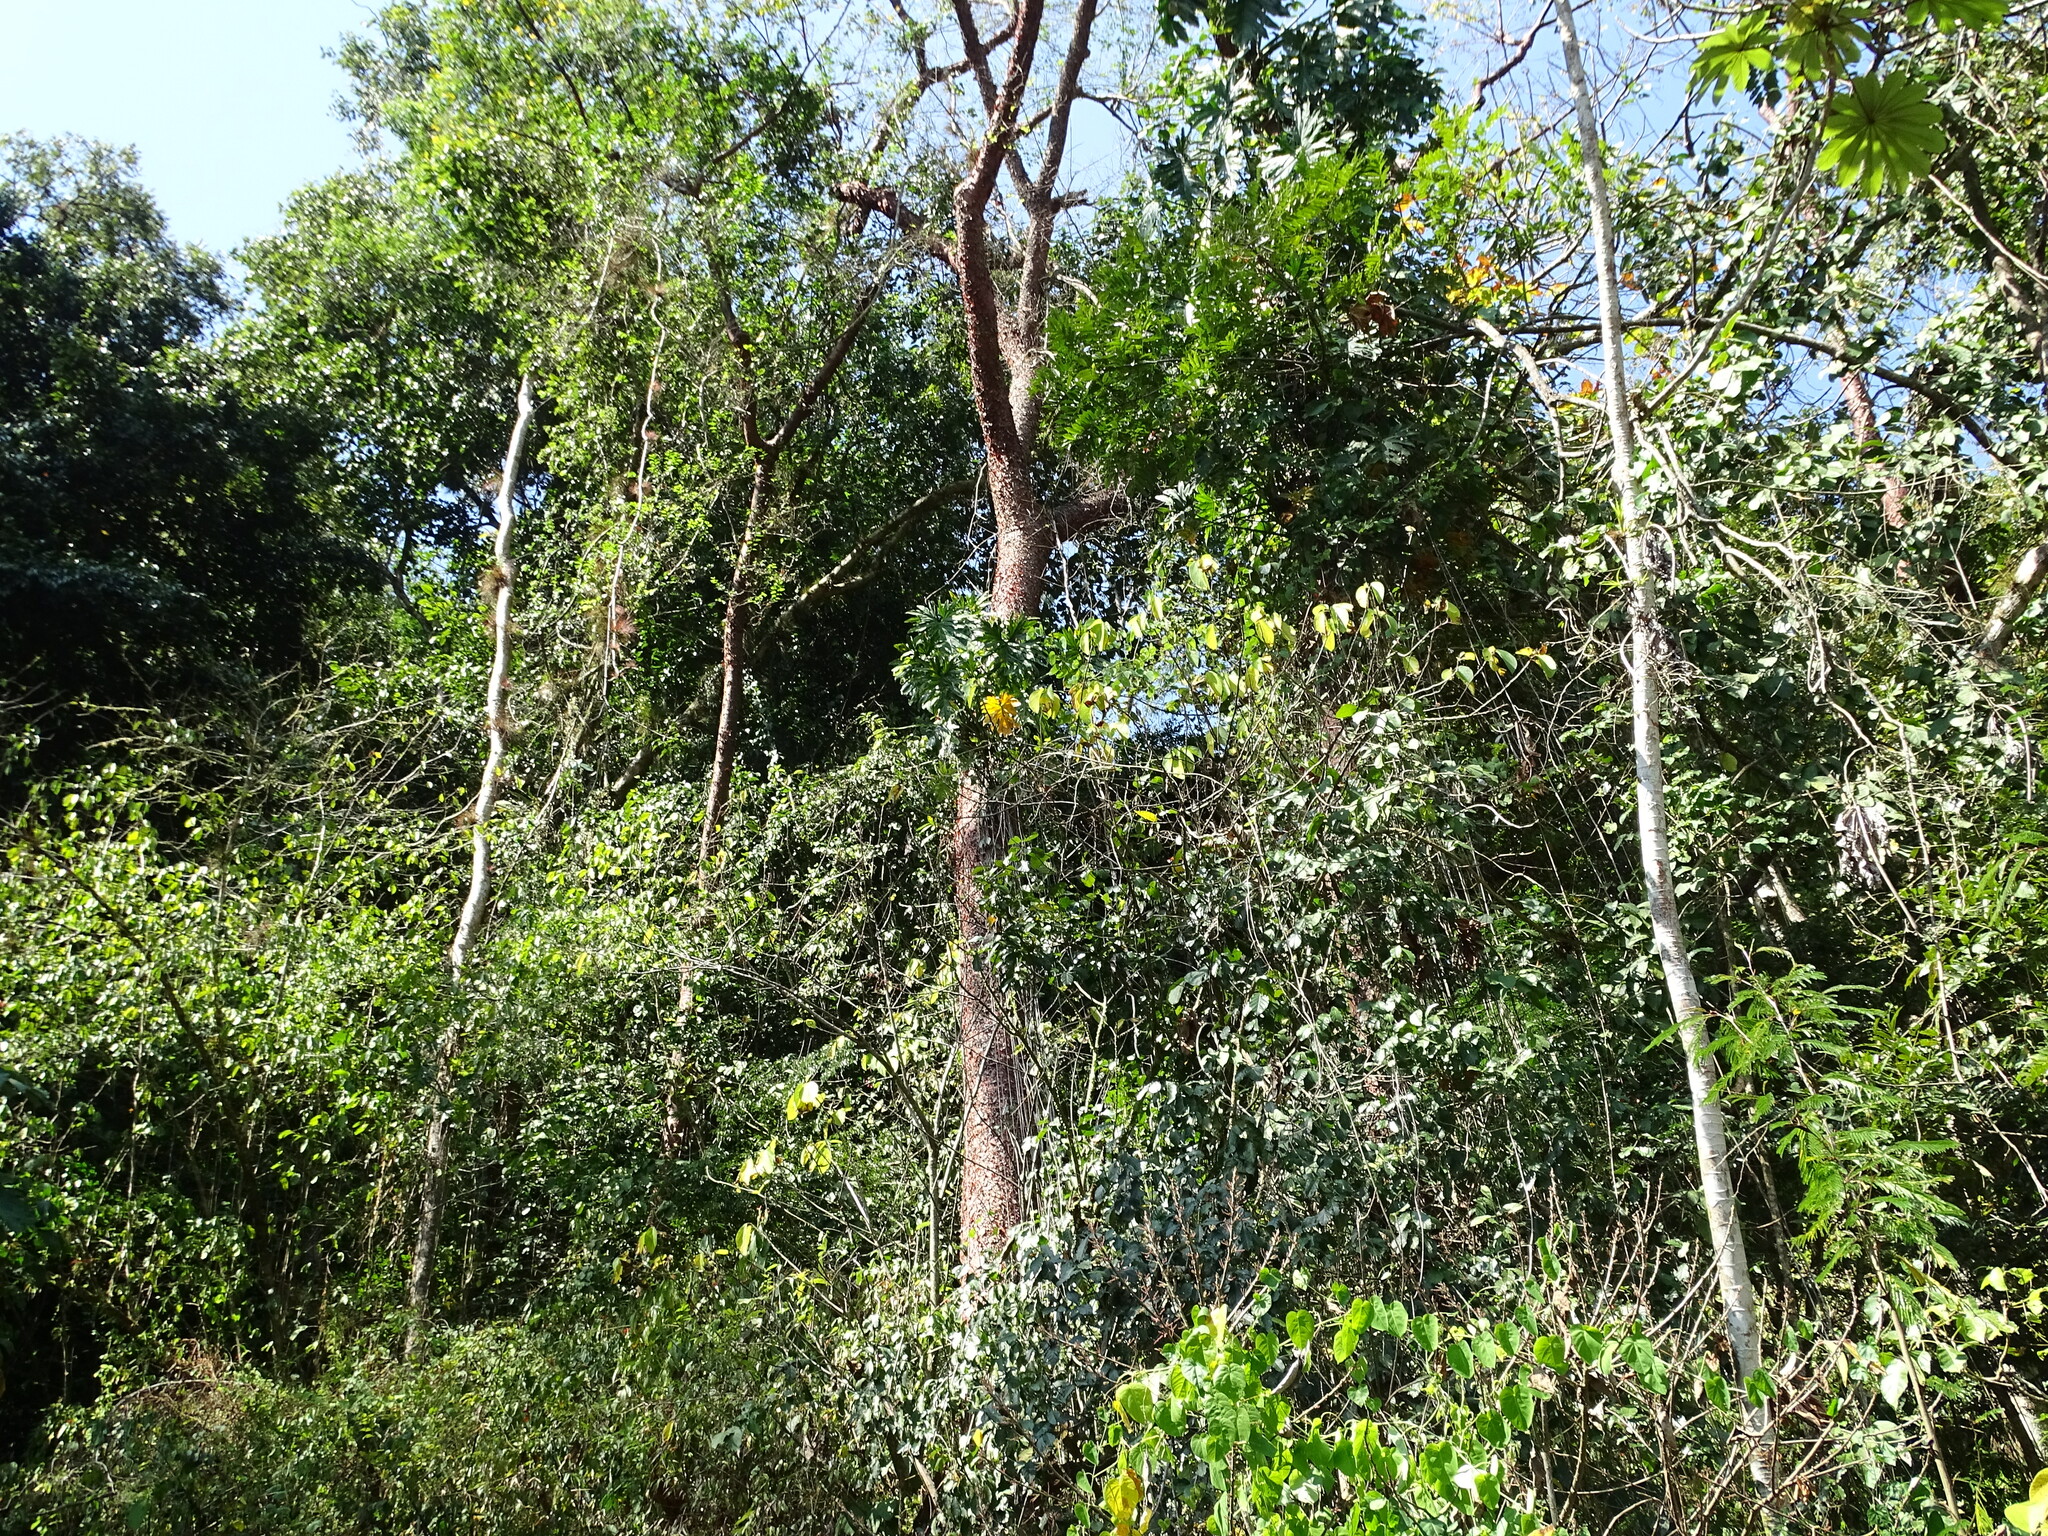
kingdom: Plantae
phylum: Tracheophyta
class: Magnoliopsida
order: Sapindales
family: Burseraceae
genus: Bursera
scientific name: Bursera simaruba
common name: Turpentine tree
